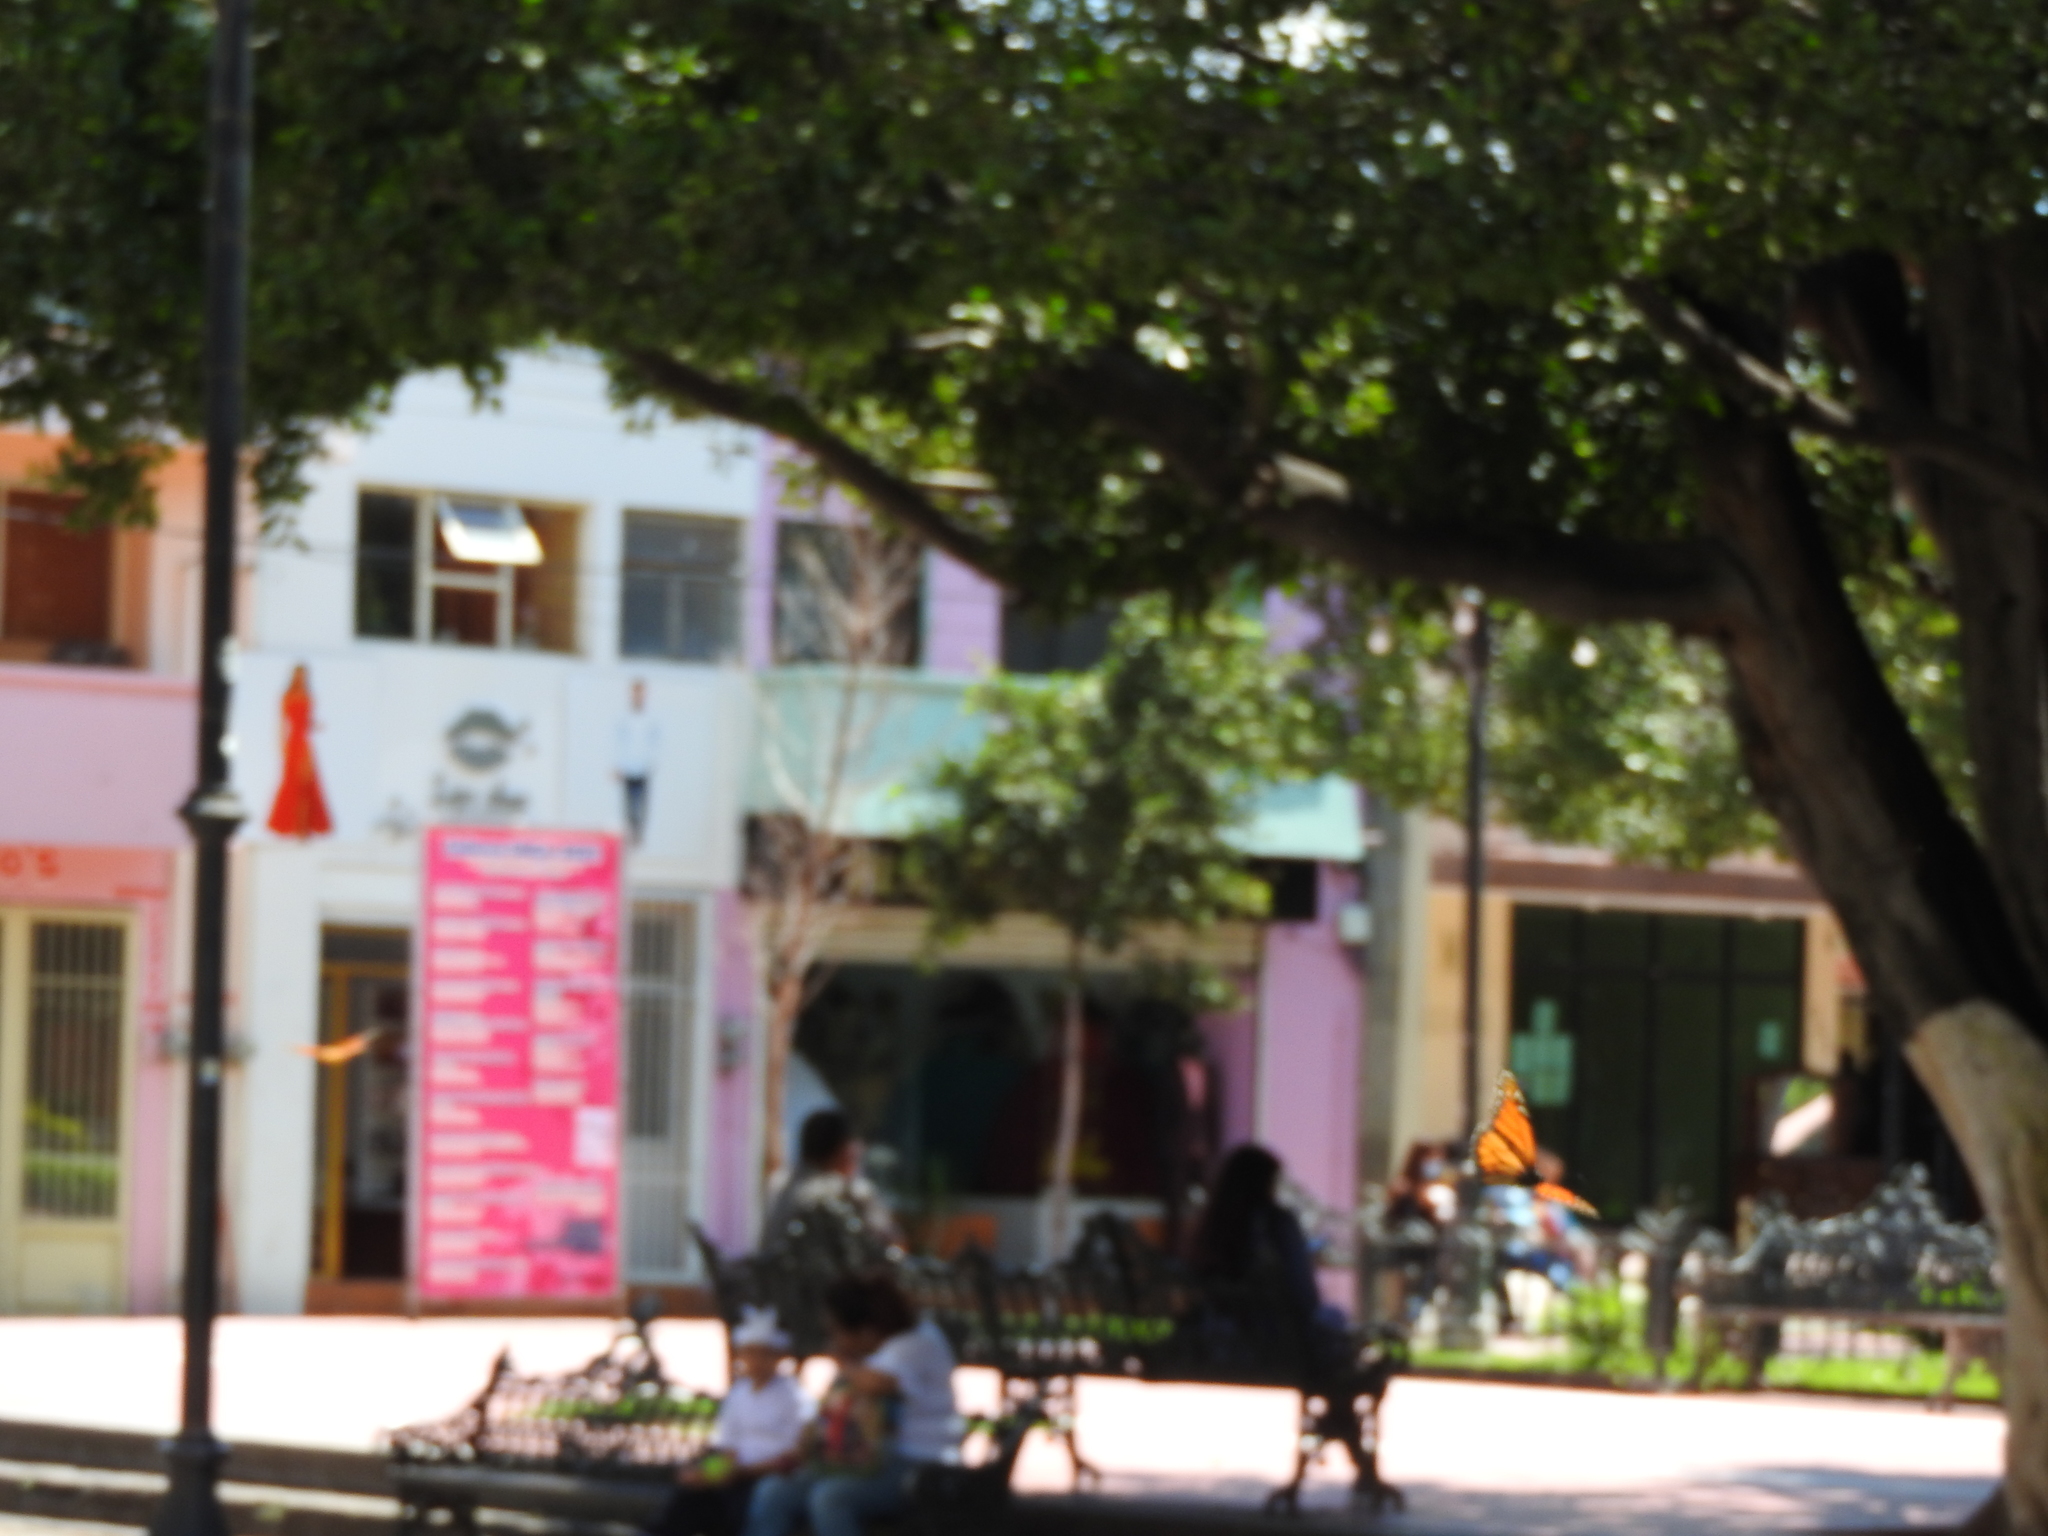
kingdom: Animalia
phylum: Arthropoda
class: Insecta
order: Lepidoptera
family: Nymphalidae
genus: Danaus
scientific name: Danaus plexippus
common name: Monarch
